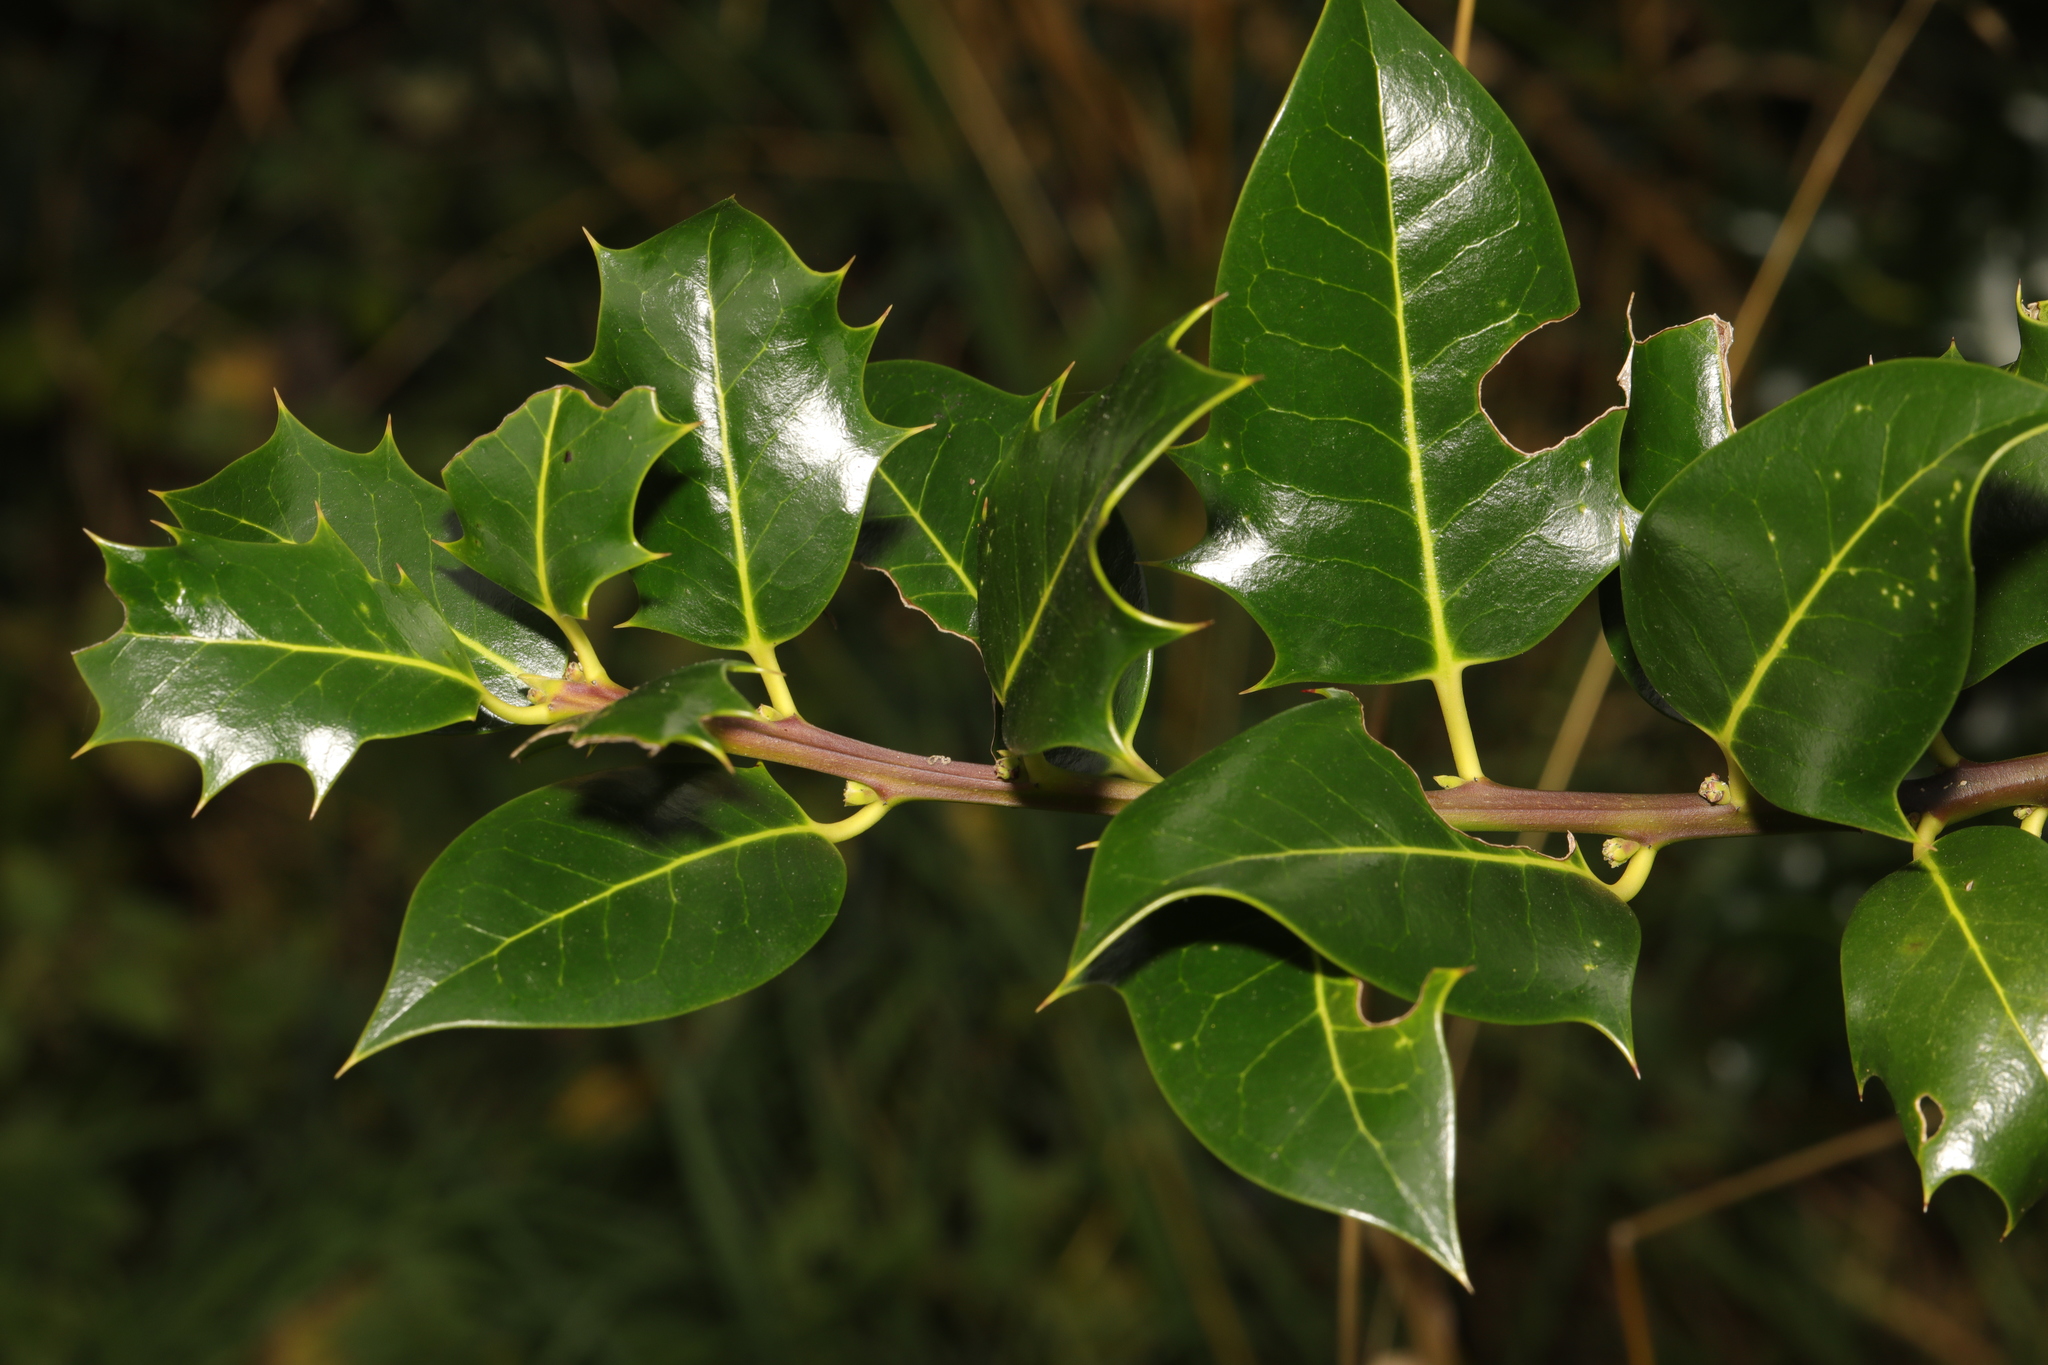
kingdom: Plantae
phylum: Tracheophyta
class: Magnoliopsida
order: Aquifoliales
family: Aquifoliaceae
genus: Ilex
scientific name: Ilex aquifolium
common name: English holly
